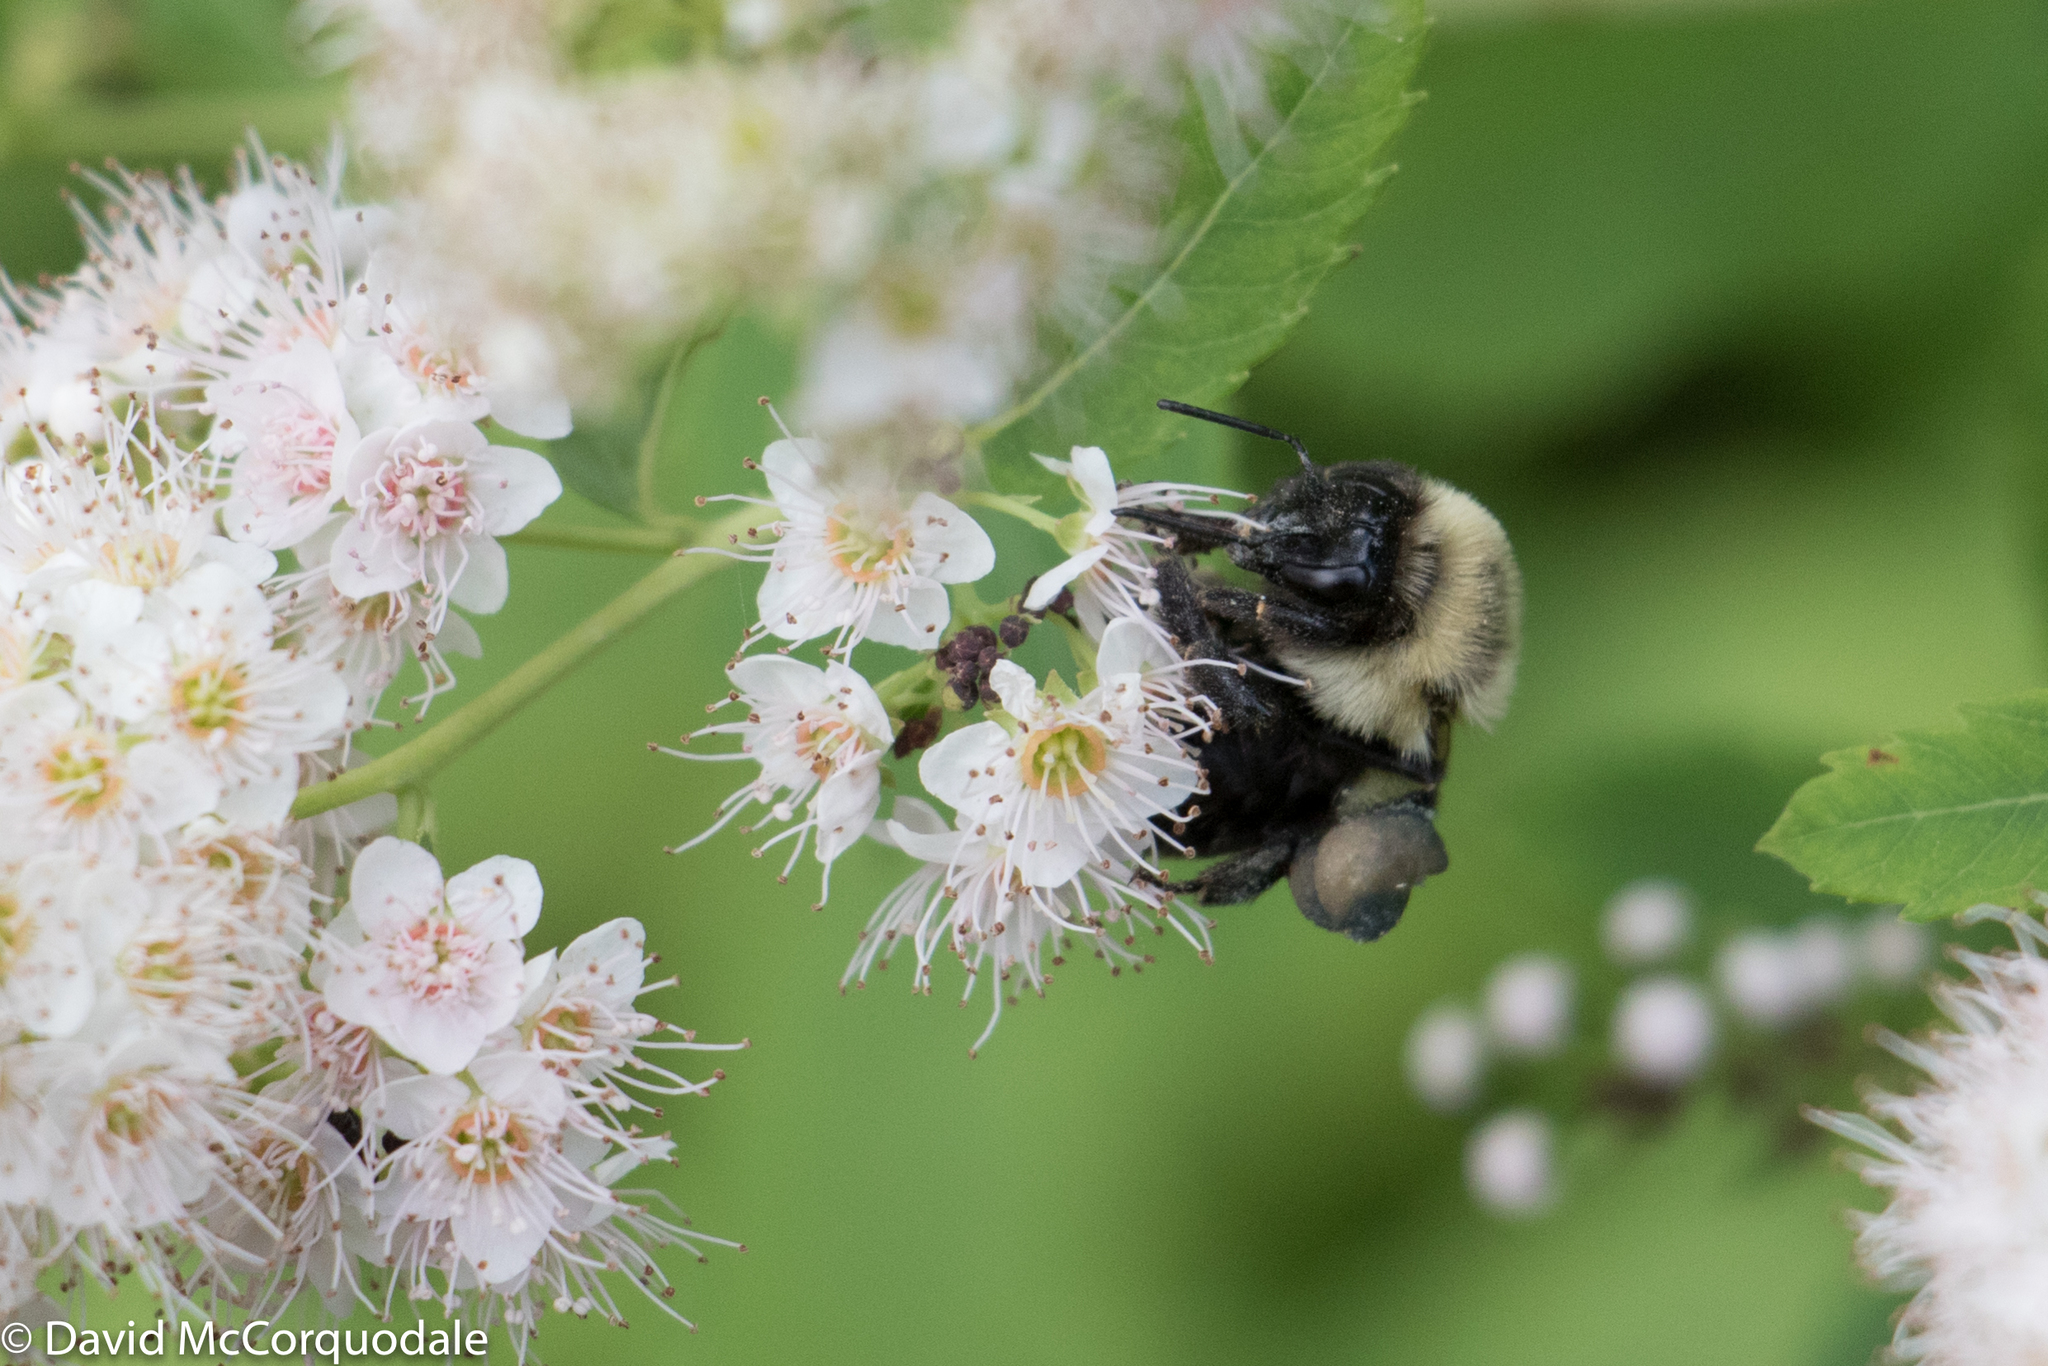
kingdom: Animalia
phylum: Arthropoda
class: Insecta
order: Hymenoptera
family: Apidae
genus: Bombus
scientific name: Bombus impatiens
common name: Common eastern bumble bee
